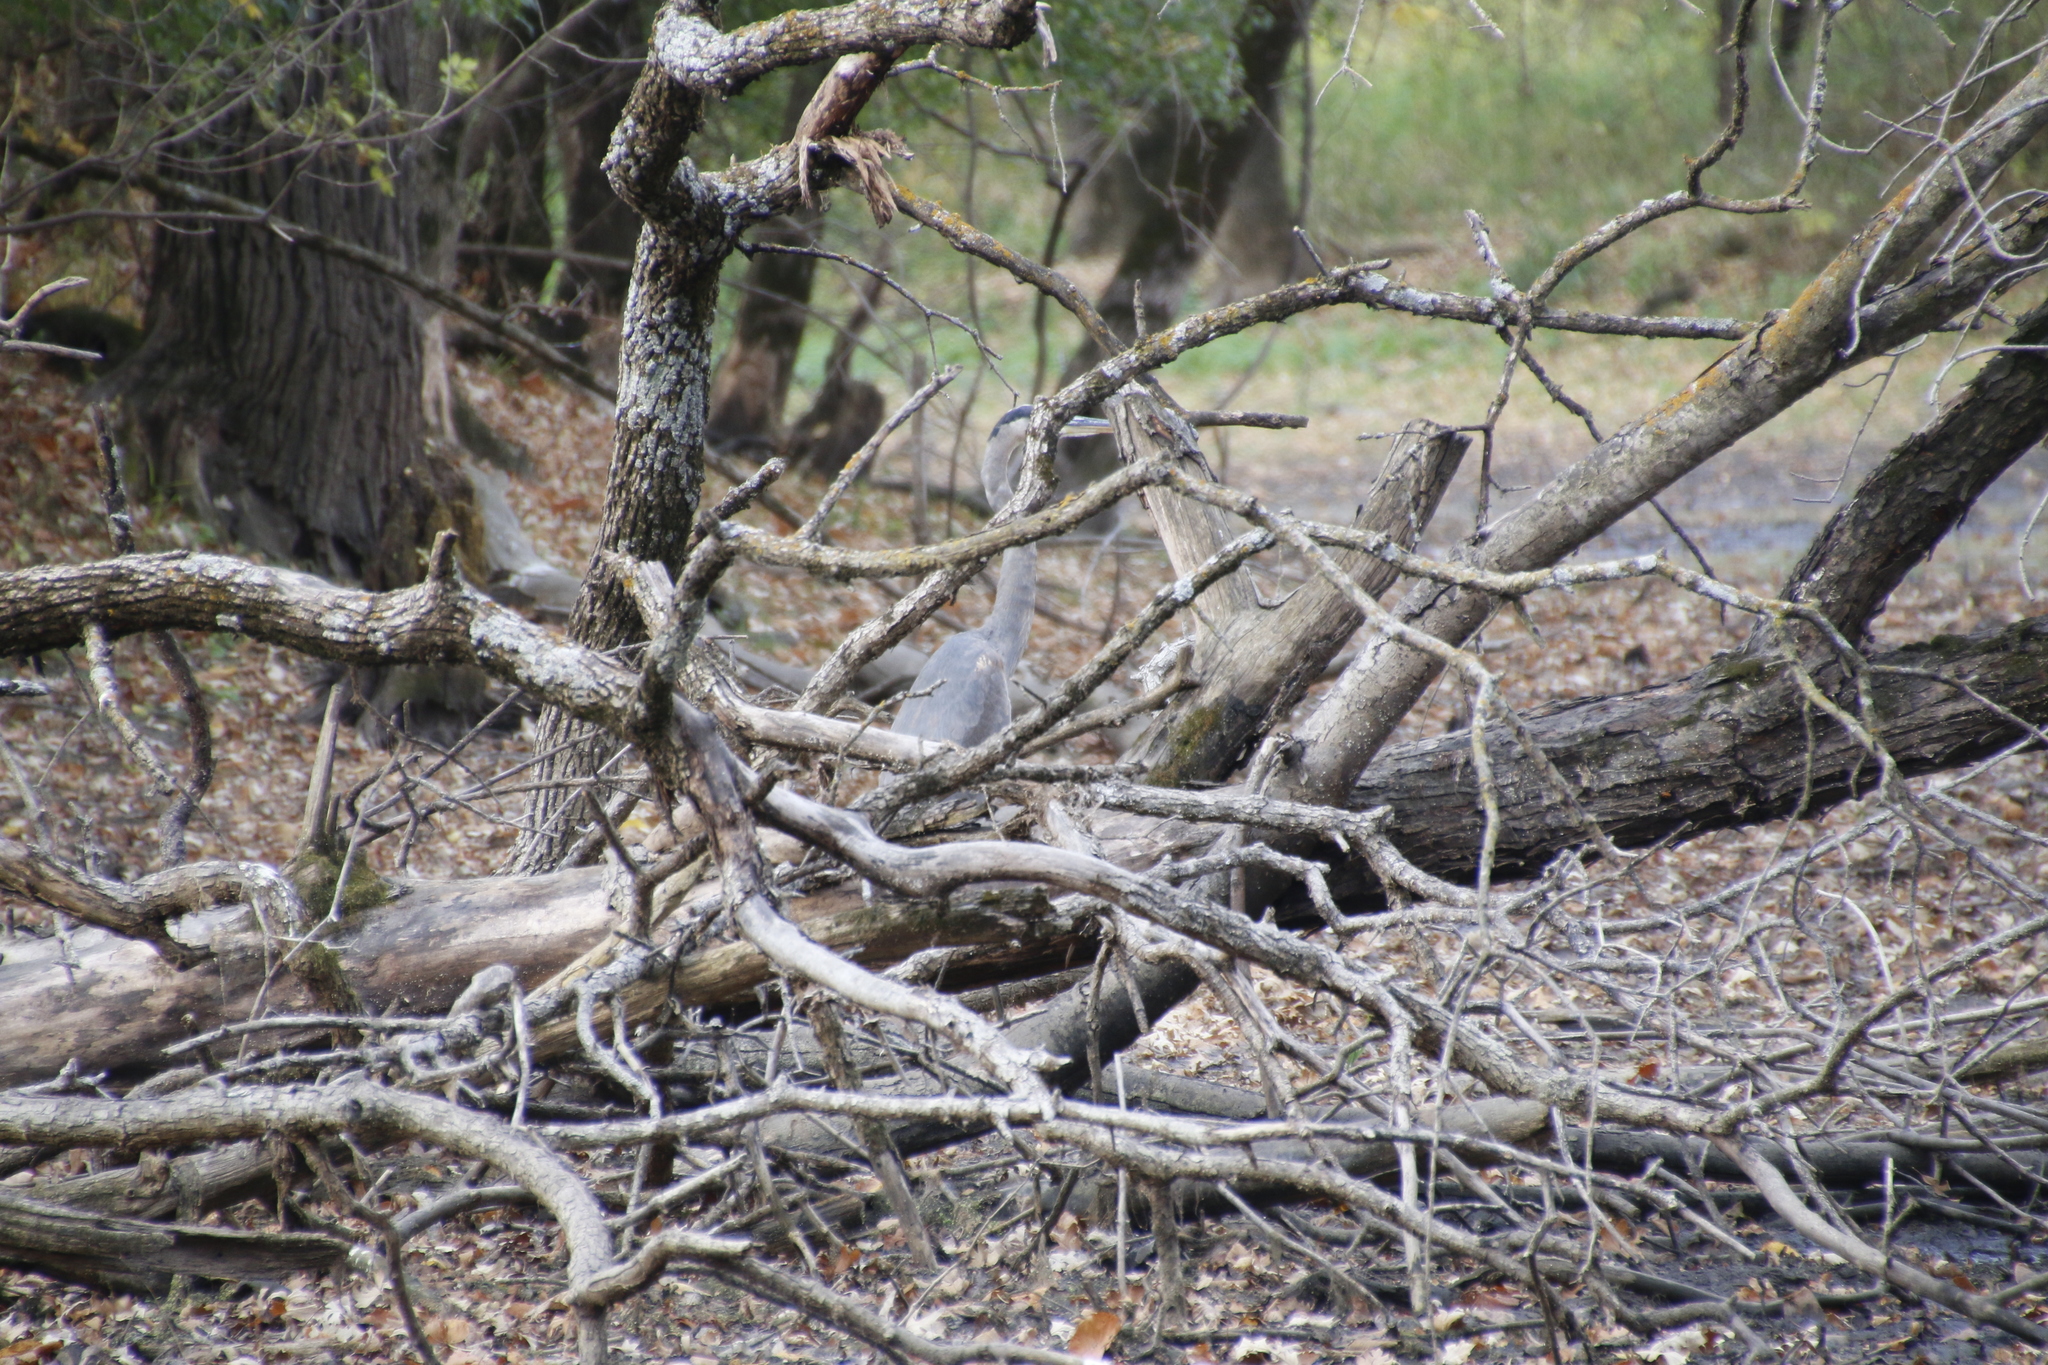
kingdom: Animalia
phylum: Chordata
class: Aves
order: Pelecaniformes
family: Ardeidae
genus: Ardea
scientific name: Ardea herodias
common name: Great blue heron
